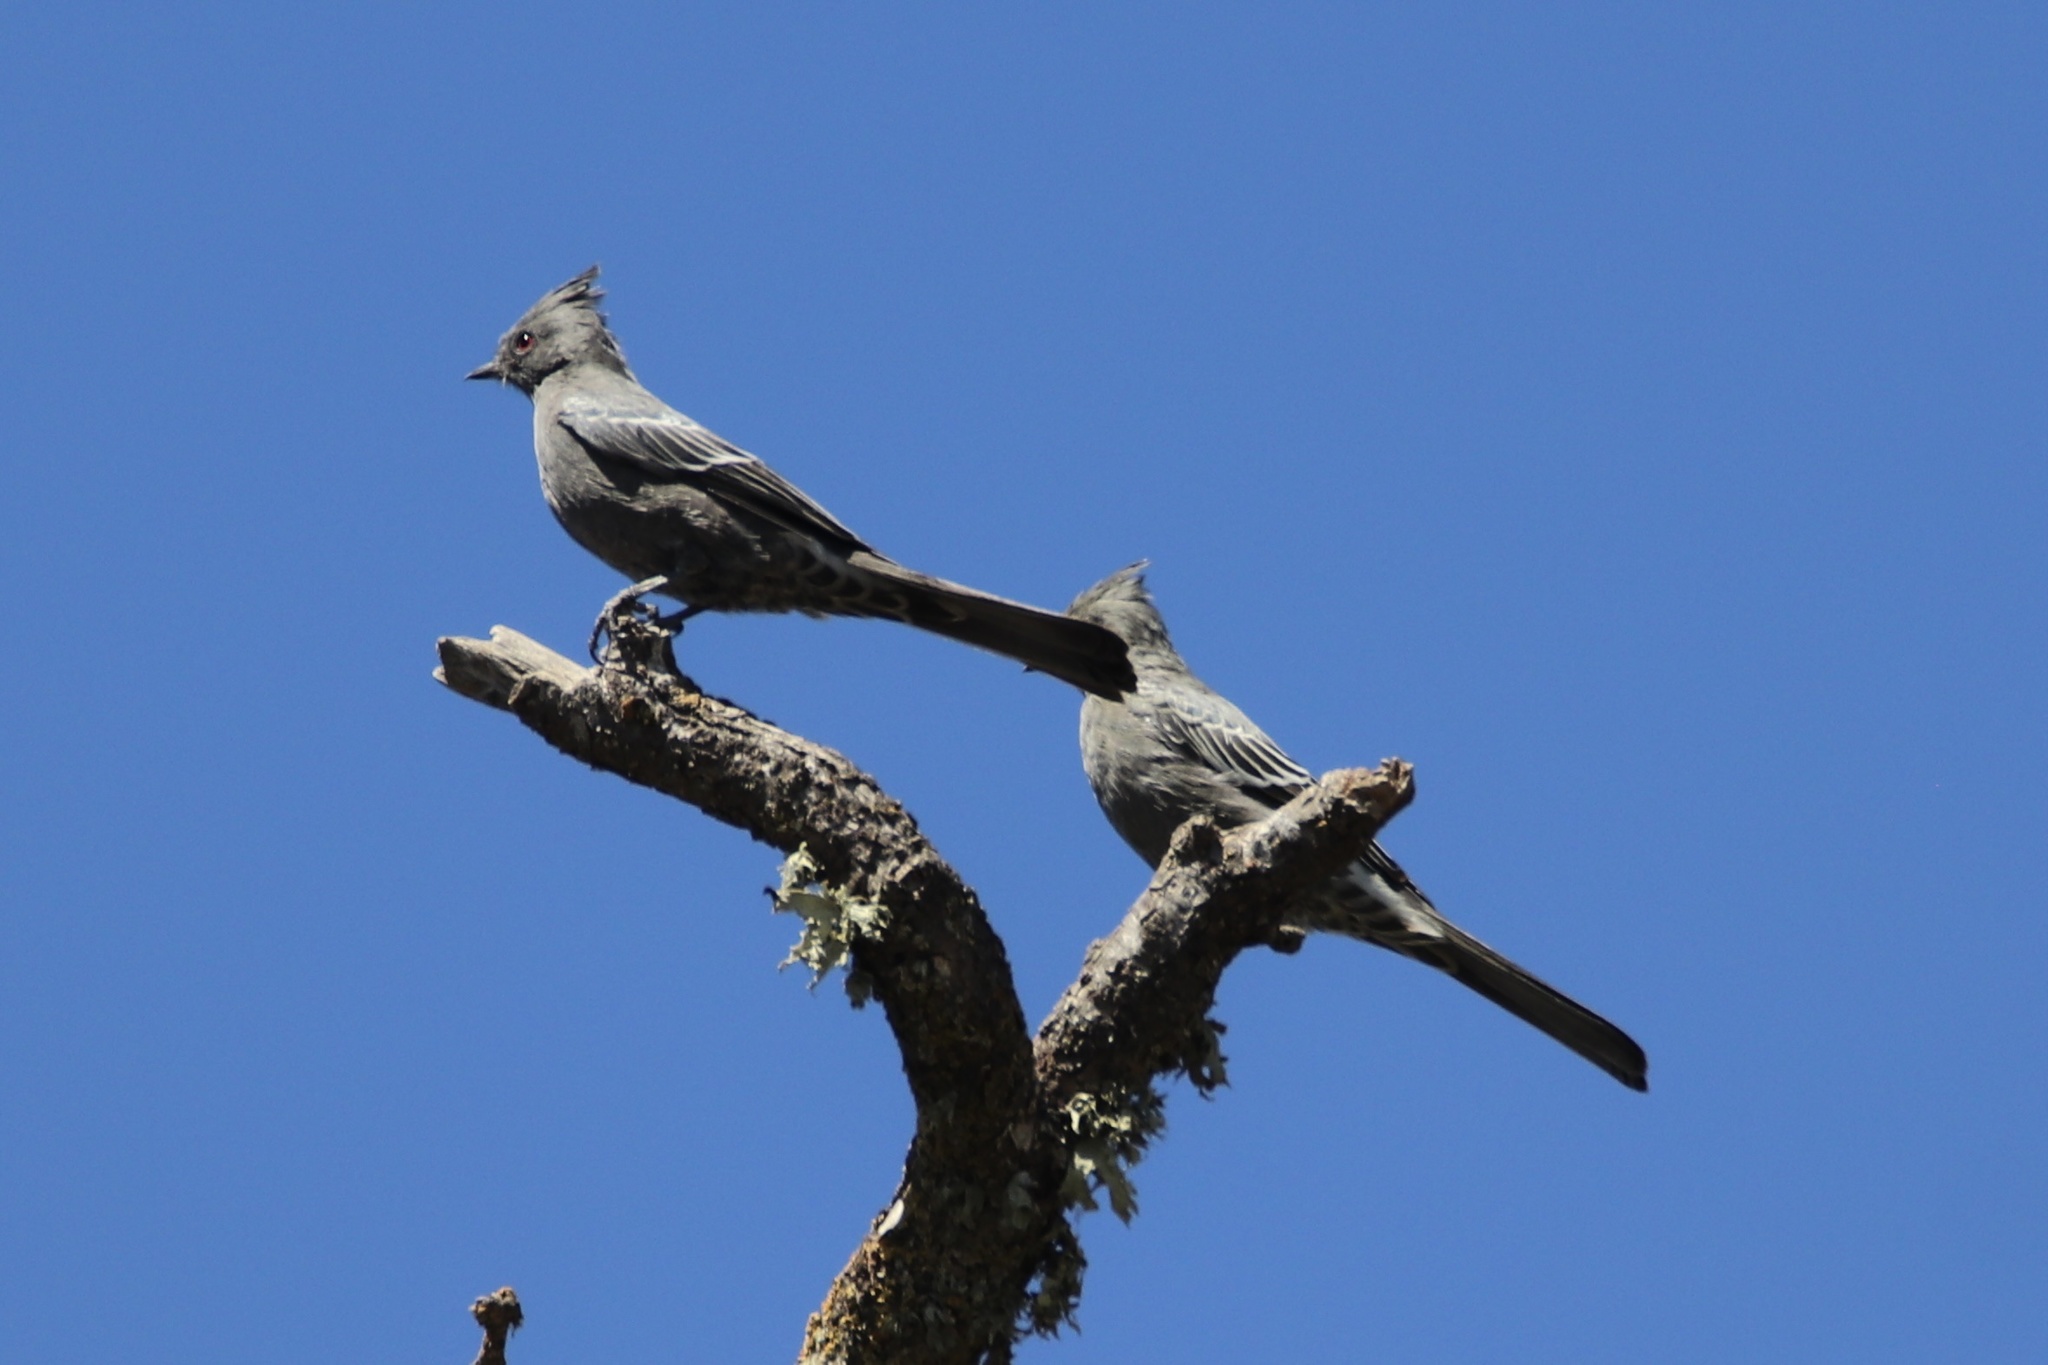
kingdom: Animalia
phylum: Chordata
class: Aves
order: Passeriformes
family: Ptilogonatidae
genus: Phainopepla
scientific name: Phainopepla nitens
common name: Phainopepla
